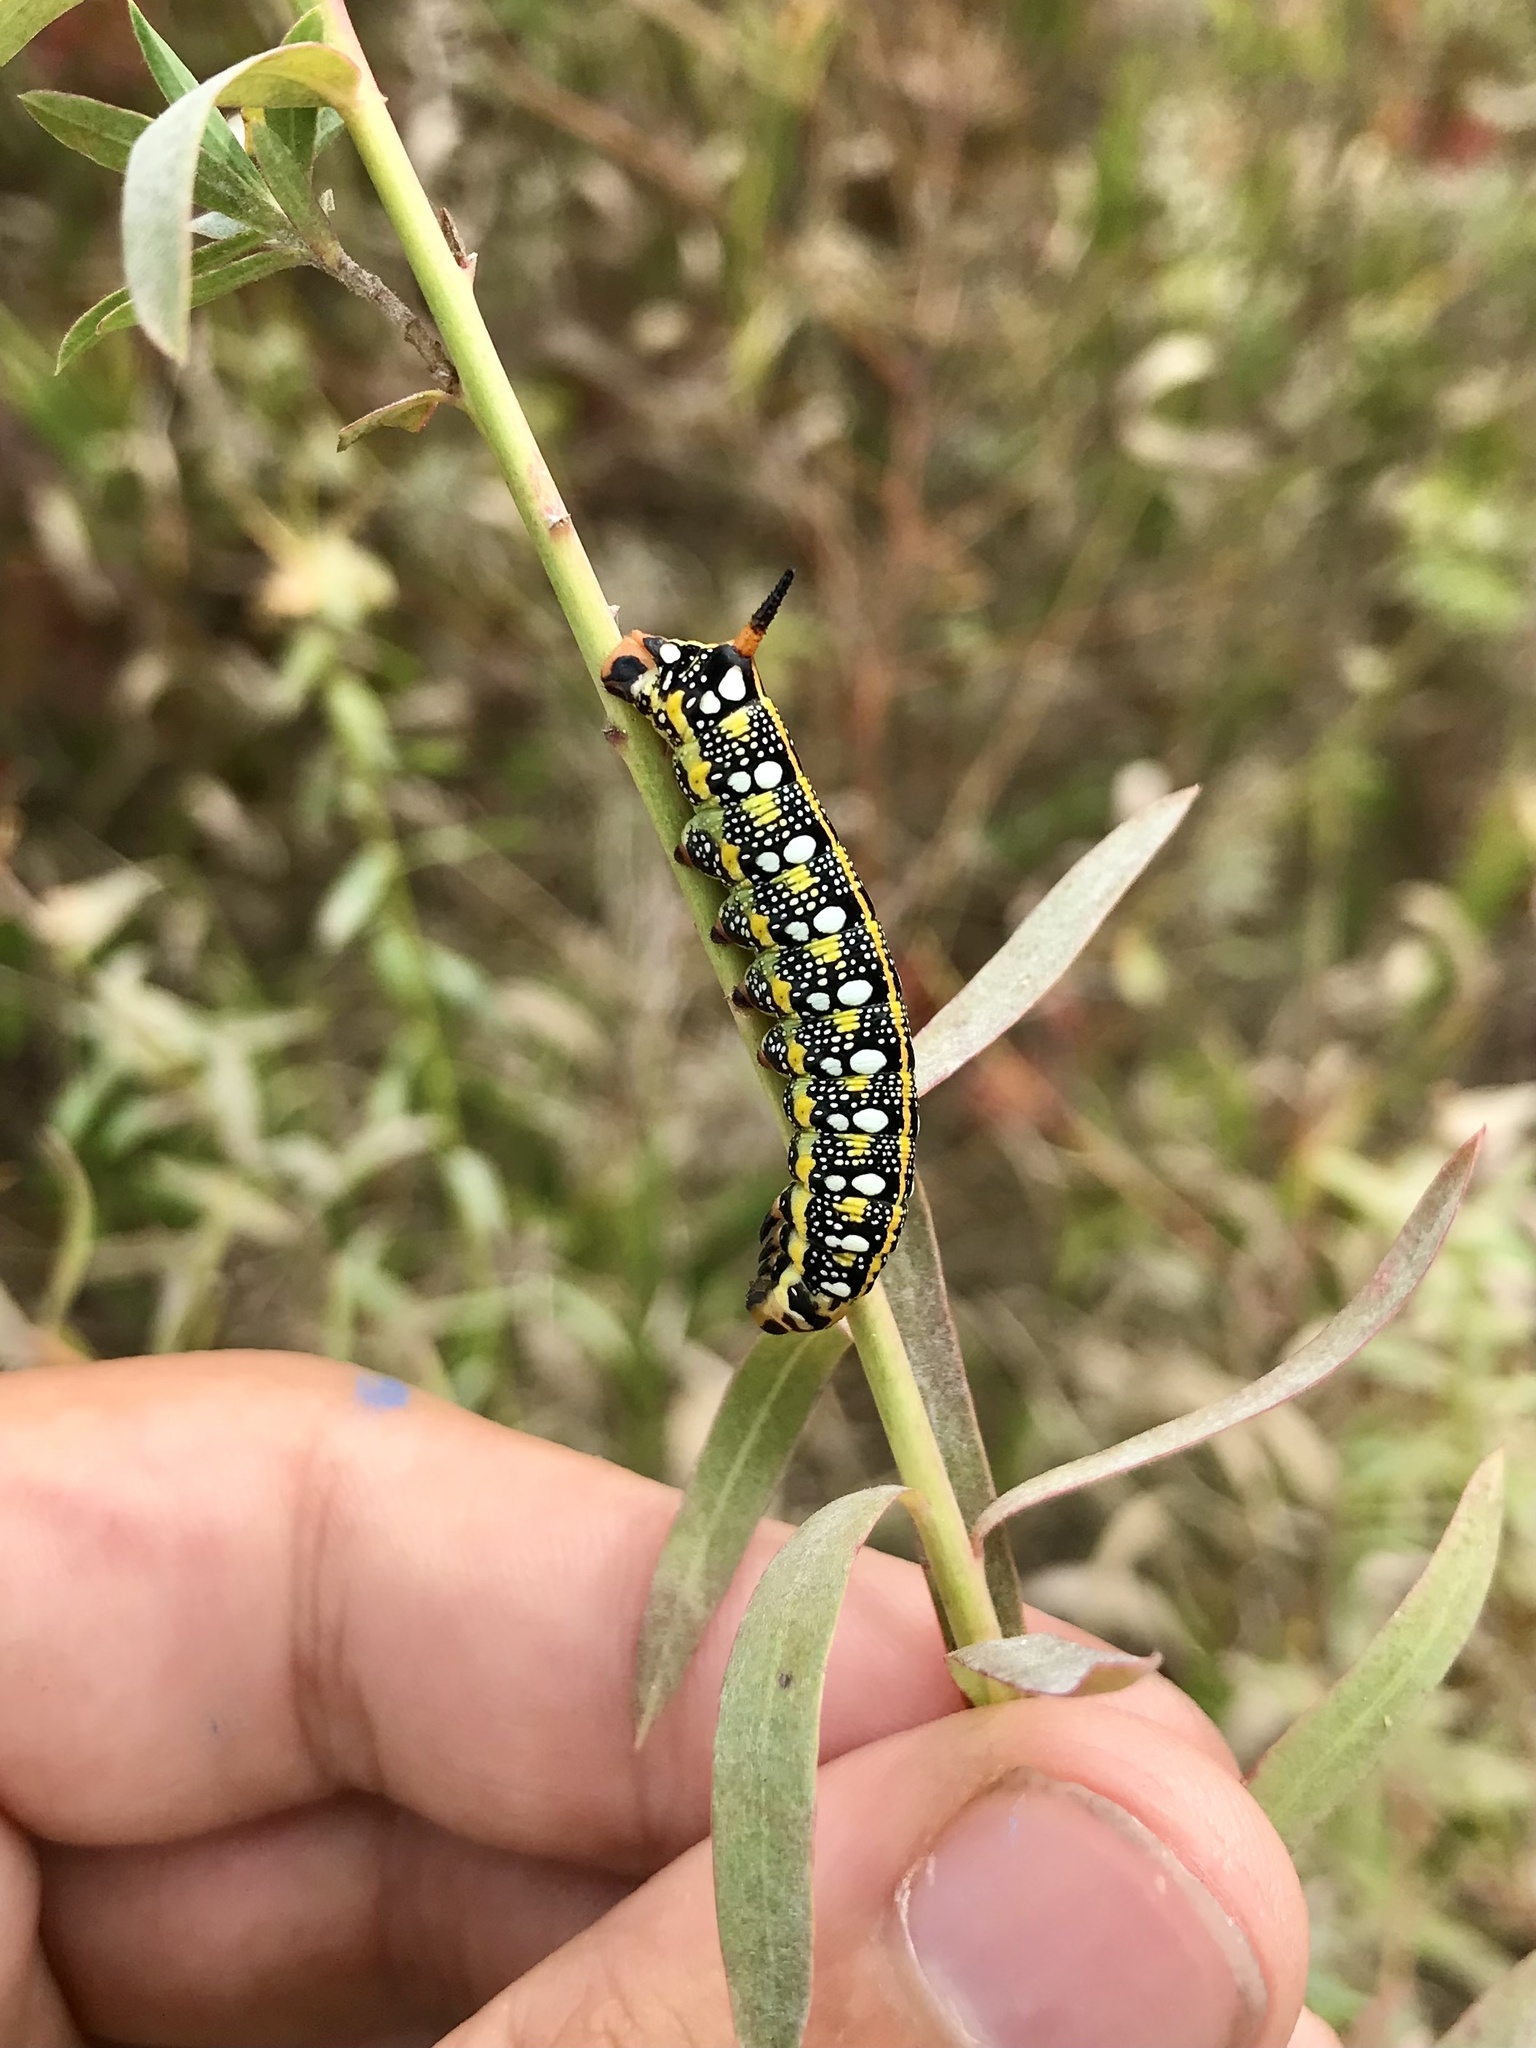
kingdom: Animalia
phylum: Arthropoda
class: Insecta
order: Lepidoptera
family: Sphingidae
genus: Hyles
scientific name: Hyles euphorbiae
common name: Spurge hawk-moth
